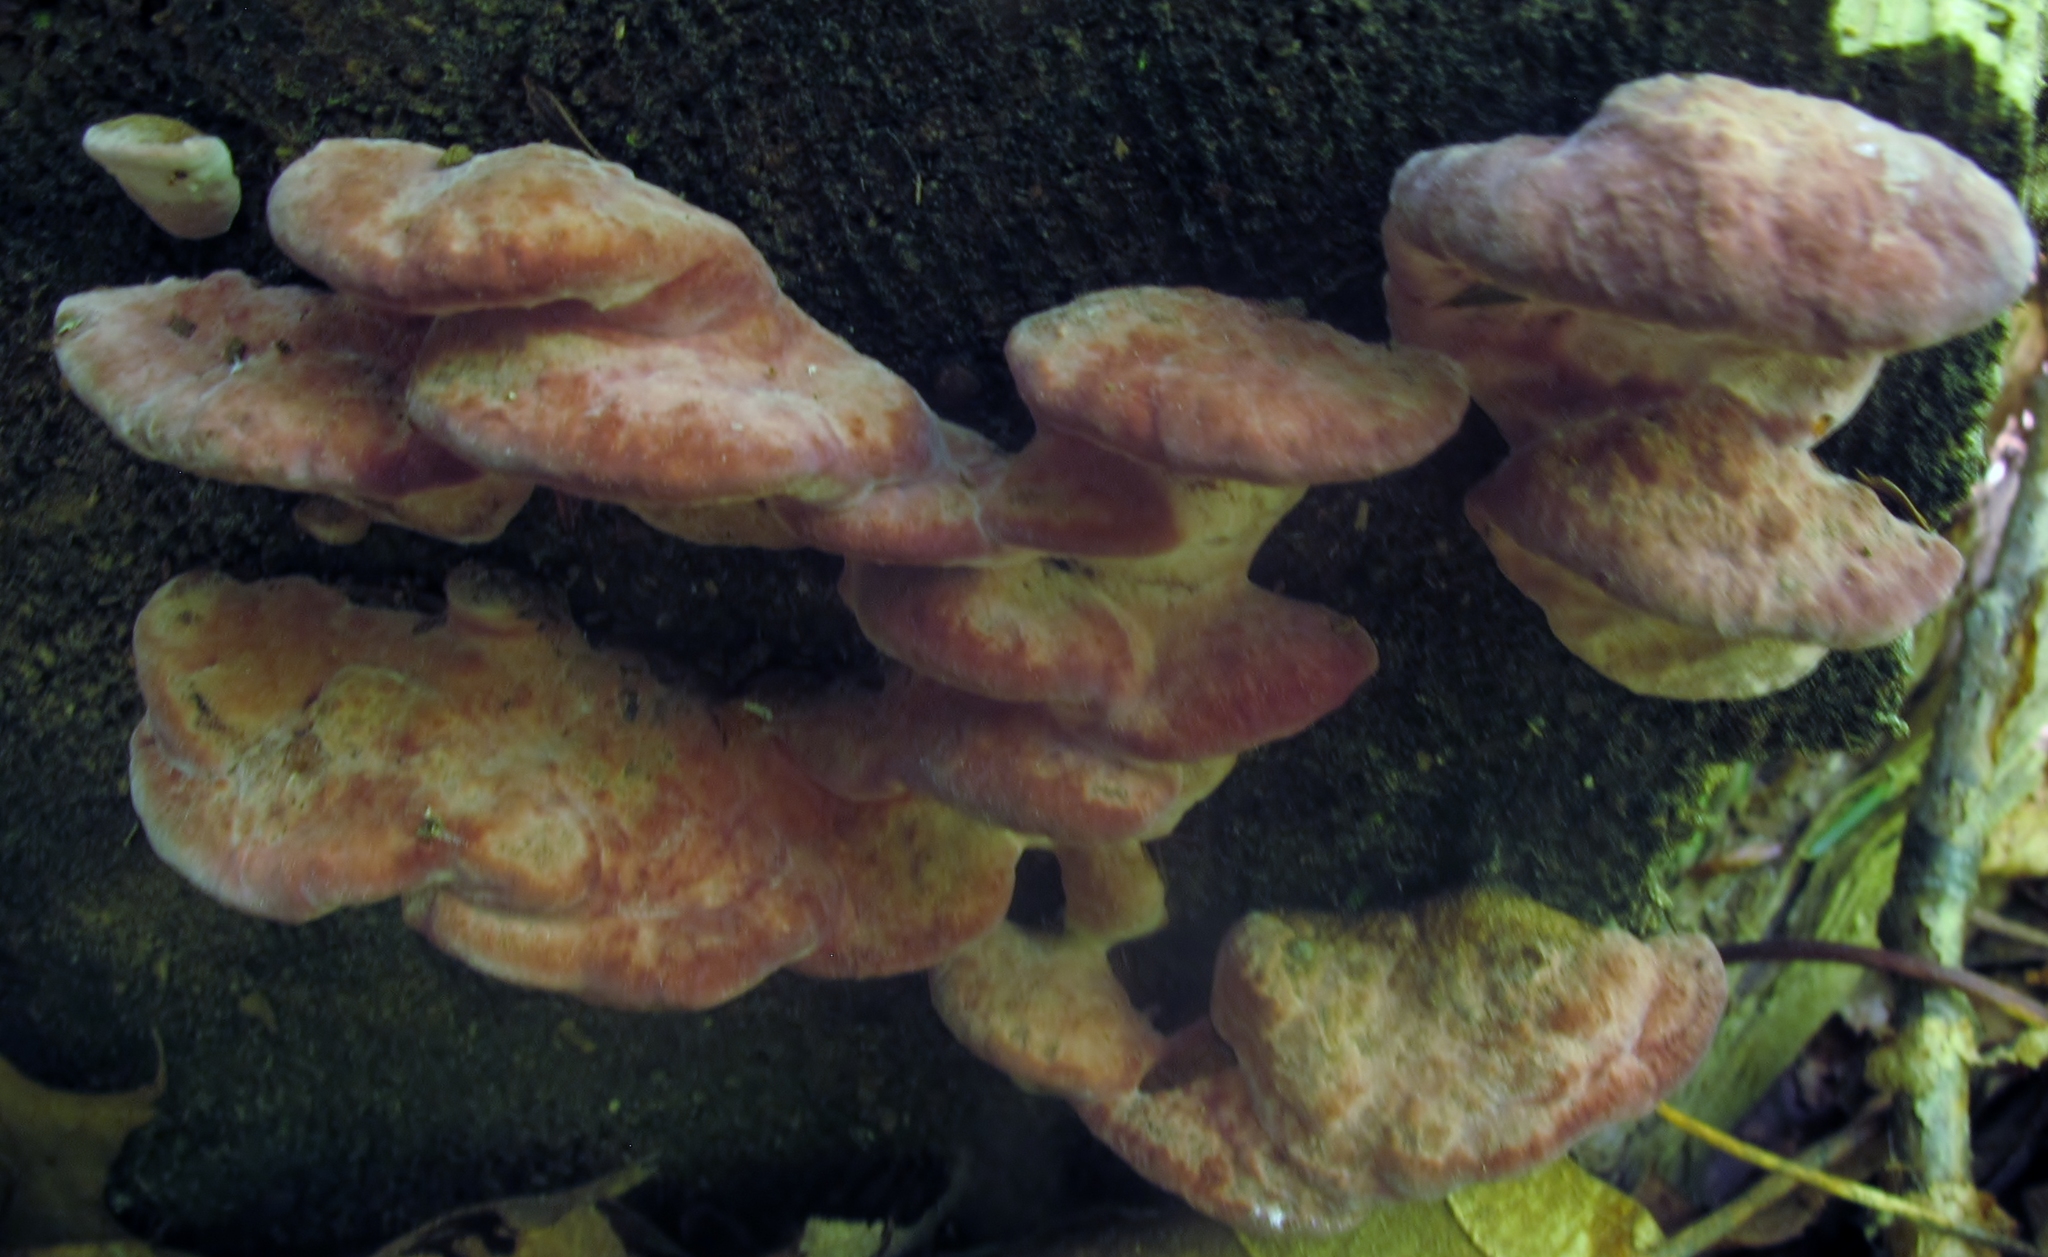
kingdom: Fungi
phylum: Basidiomycota
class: Agaricomycetes
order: Polyporales
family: Fomitopsidaceae
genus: Rhodofomes
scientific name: Rhodofomes cajanderi
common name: Rosy conk
